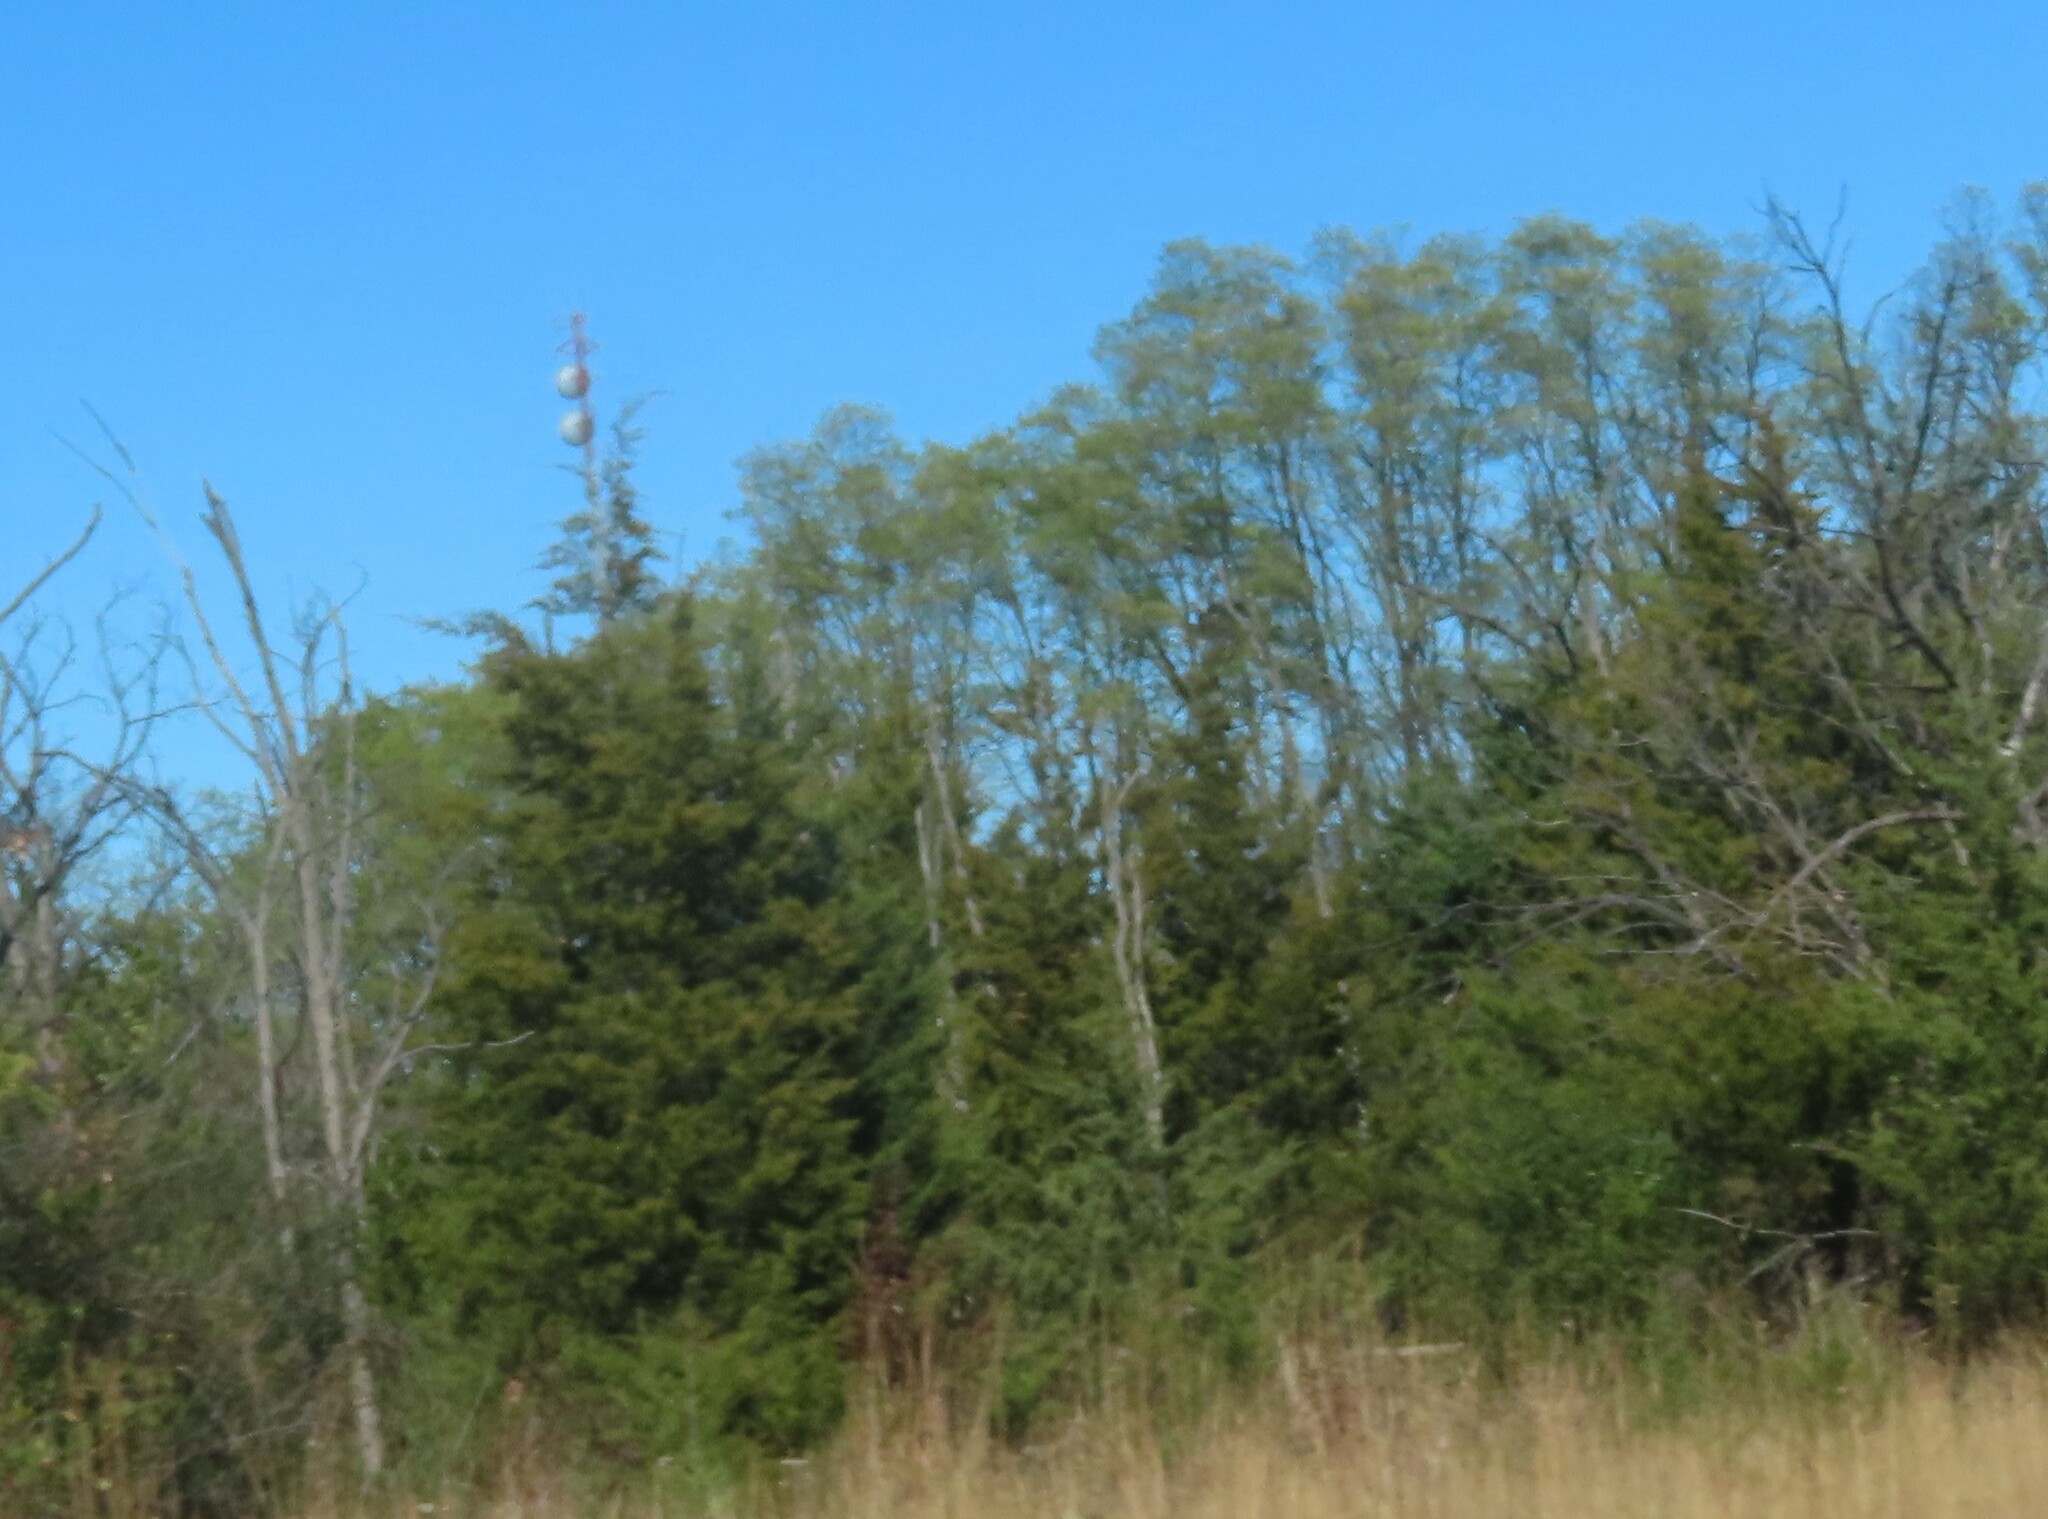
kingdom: Plantae
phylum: Tracheophyta
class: Pinopsida
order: Pinales
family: Cupressaceae
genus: Juniperus
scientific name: Juniperus virginiana
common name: Red juniper
